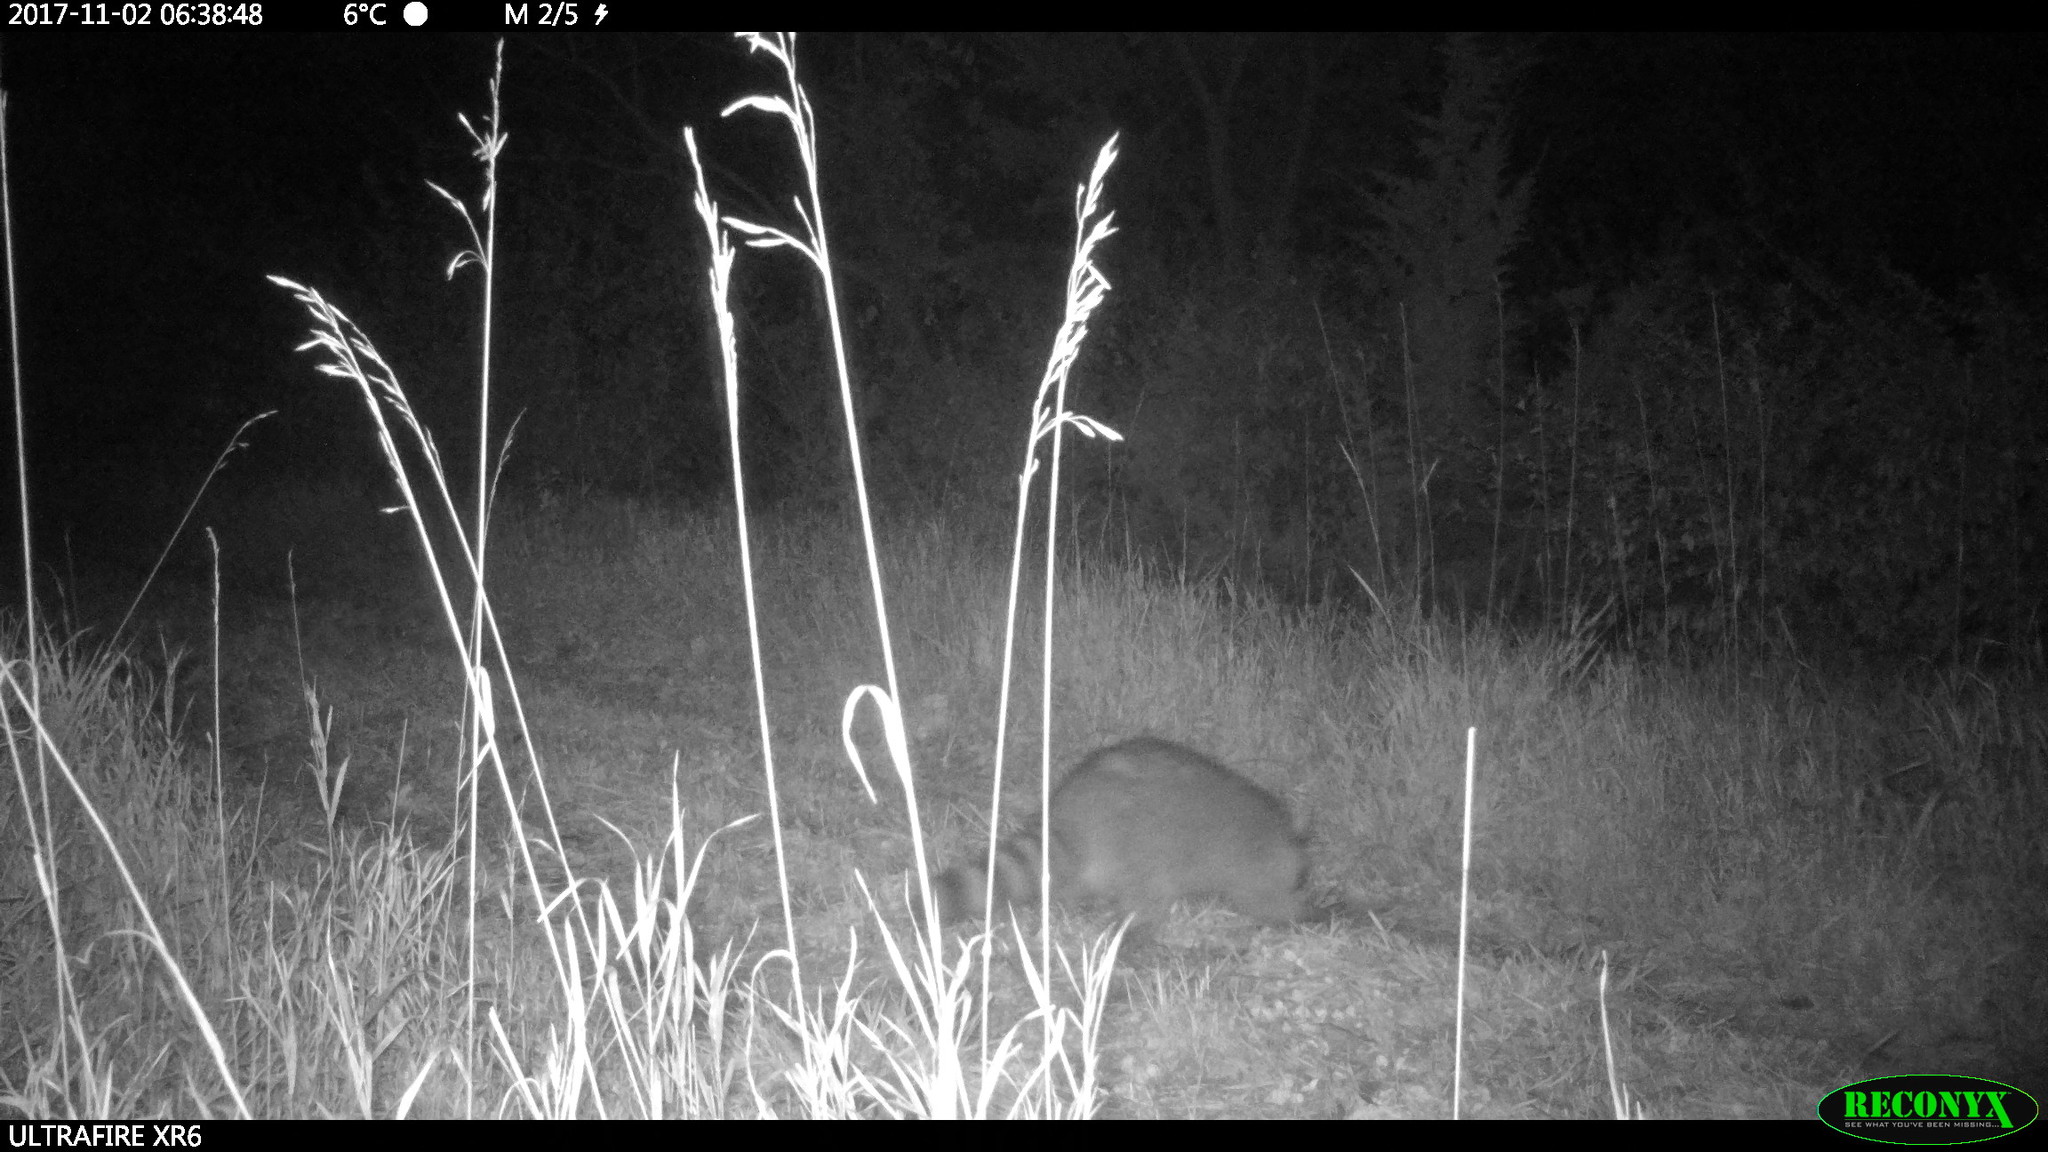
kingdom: Animalia
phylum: Chordata
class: Mammalia
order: Carnivora
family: Procyonidae
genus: Procyon
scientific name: Procyon lotor
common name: Raccoon
